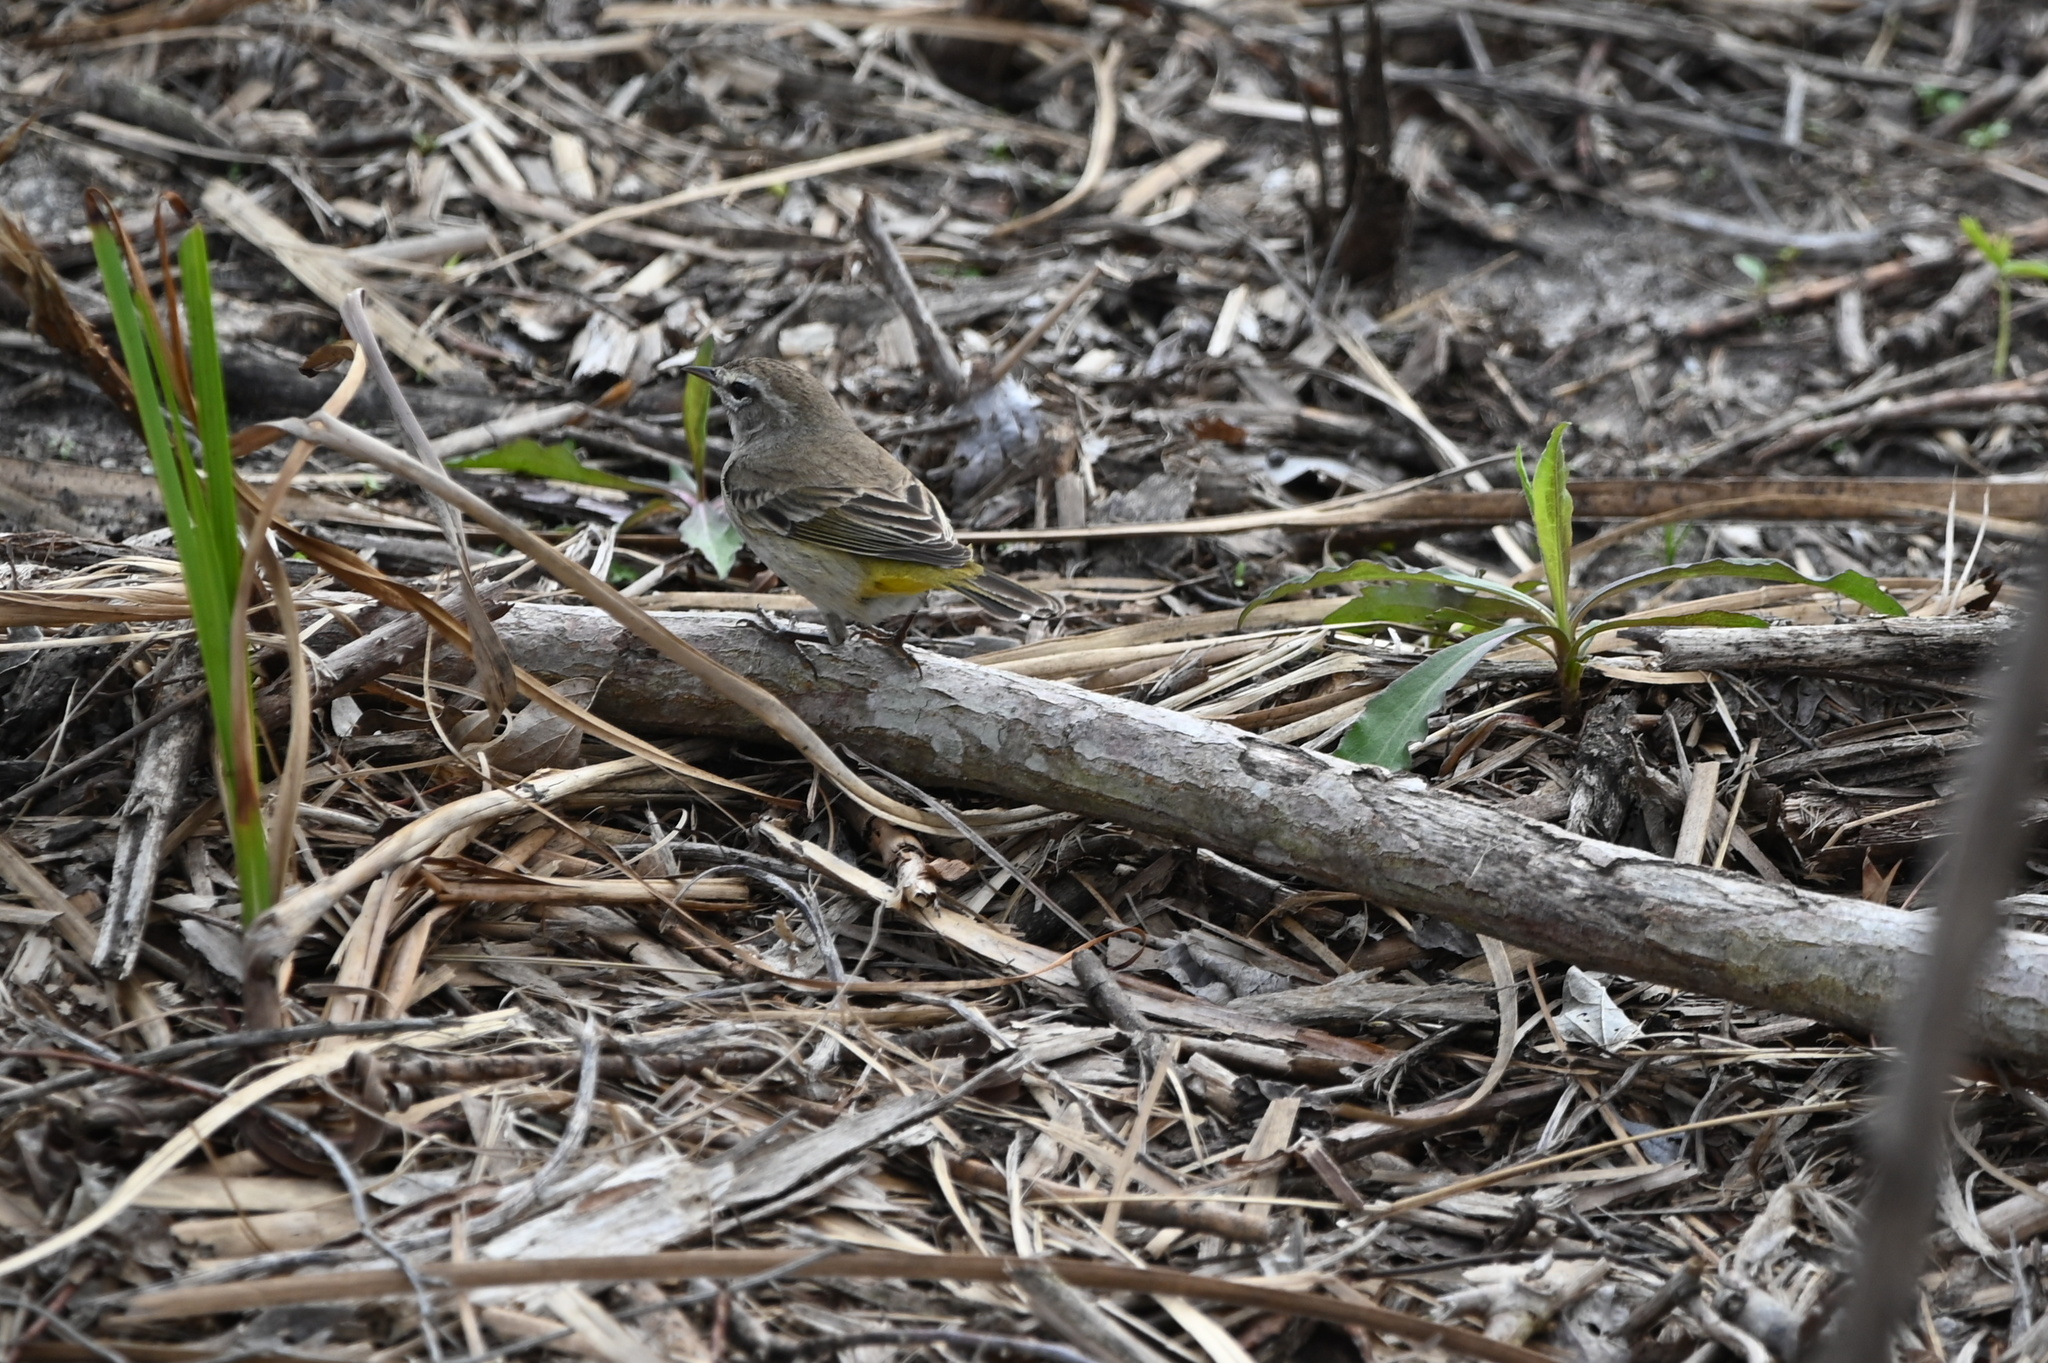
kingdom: Animalia
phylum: Chordata
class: Aves
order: Passeriformes
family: Parulidae
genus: Setophaga
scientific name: Setophaga palmarum
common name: Palm warbler
